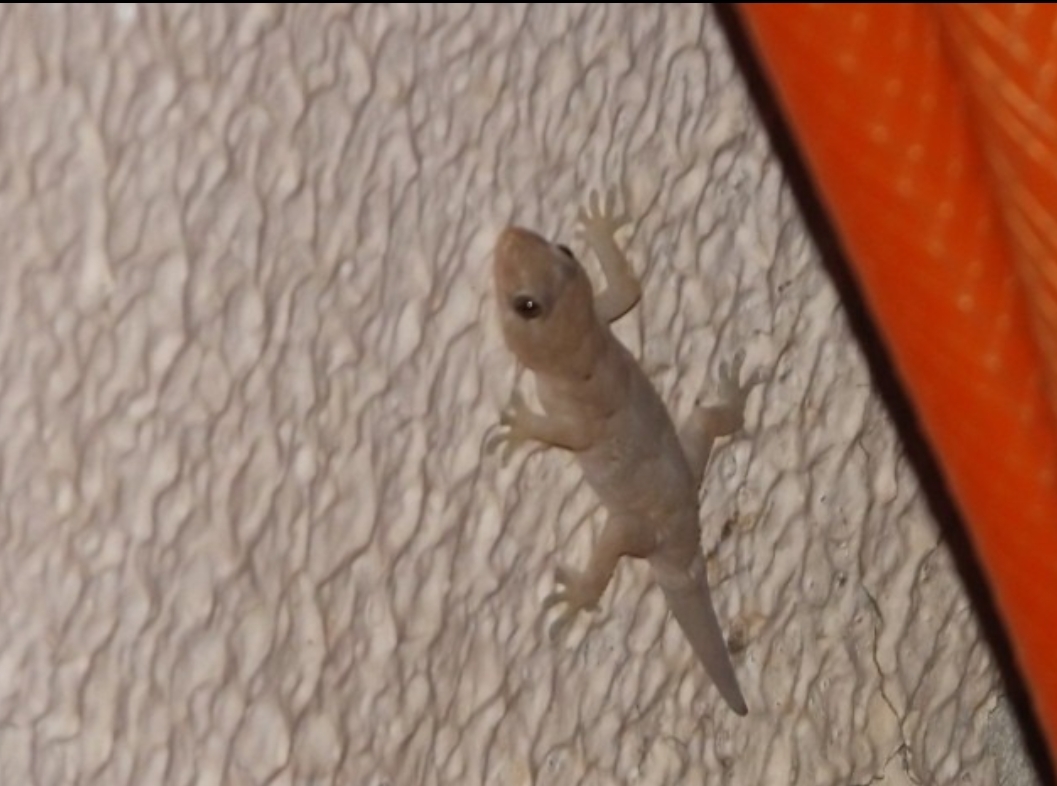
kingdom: Animalia
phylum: Chordata
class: Squamata
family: Gekkonidae
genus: Hemidactylus
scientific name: Hemidactylus mabouia
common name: House gecko
